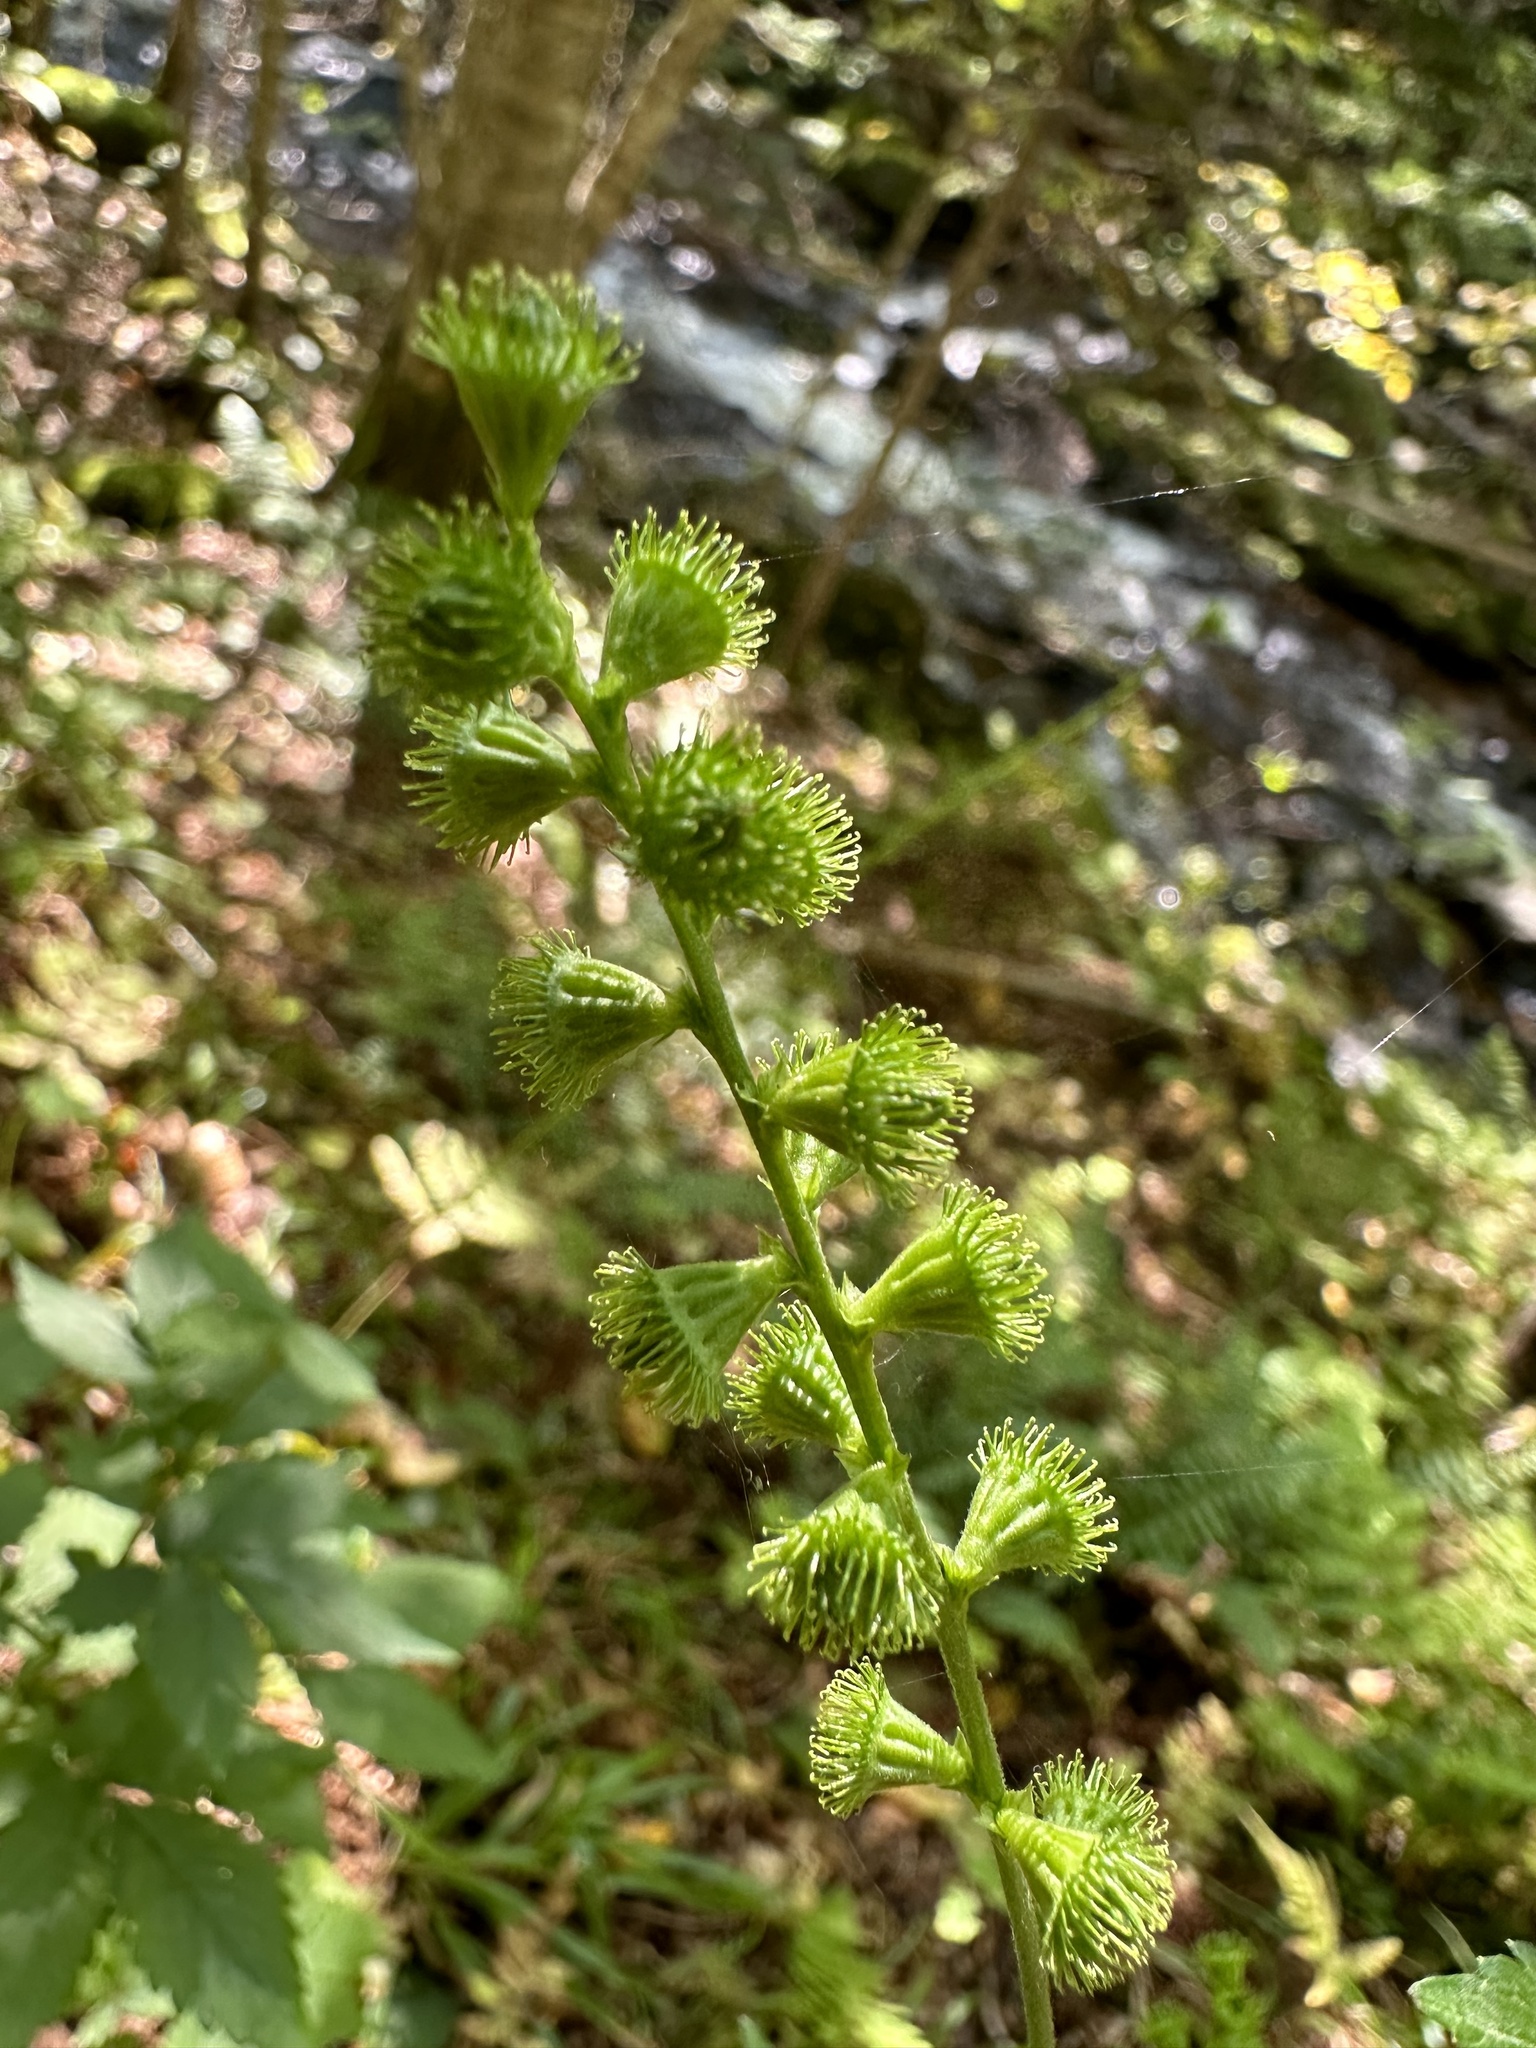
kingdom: Plantae
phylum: Tracheophyta
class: Magnoliopsida
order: Rosales
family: Rosaceae
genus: Agrimonia
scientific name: Agrimonia striata
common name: Britton's agrimony
